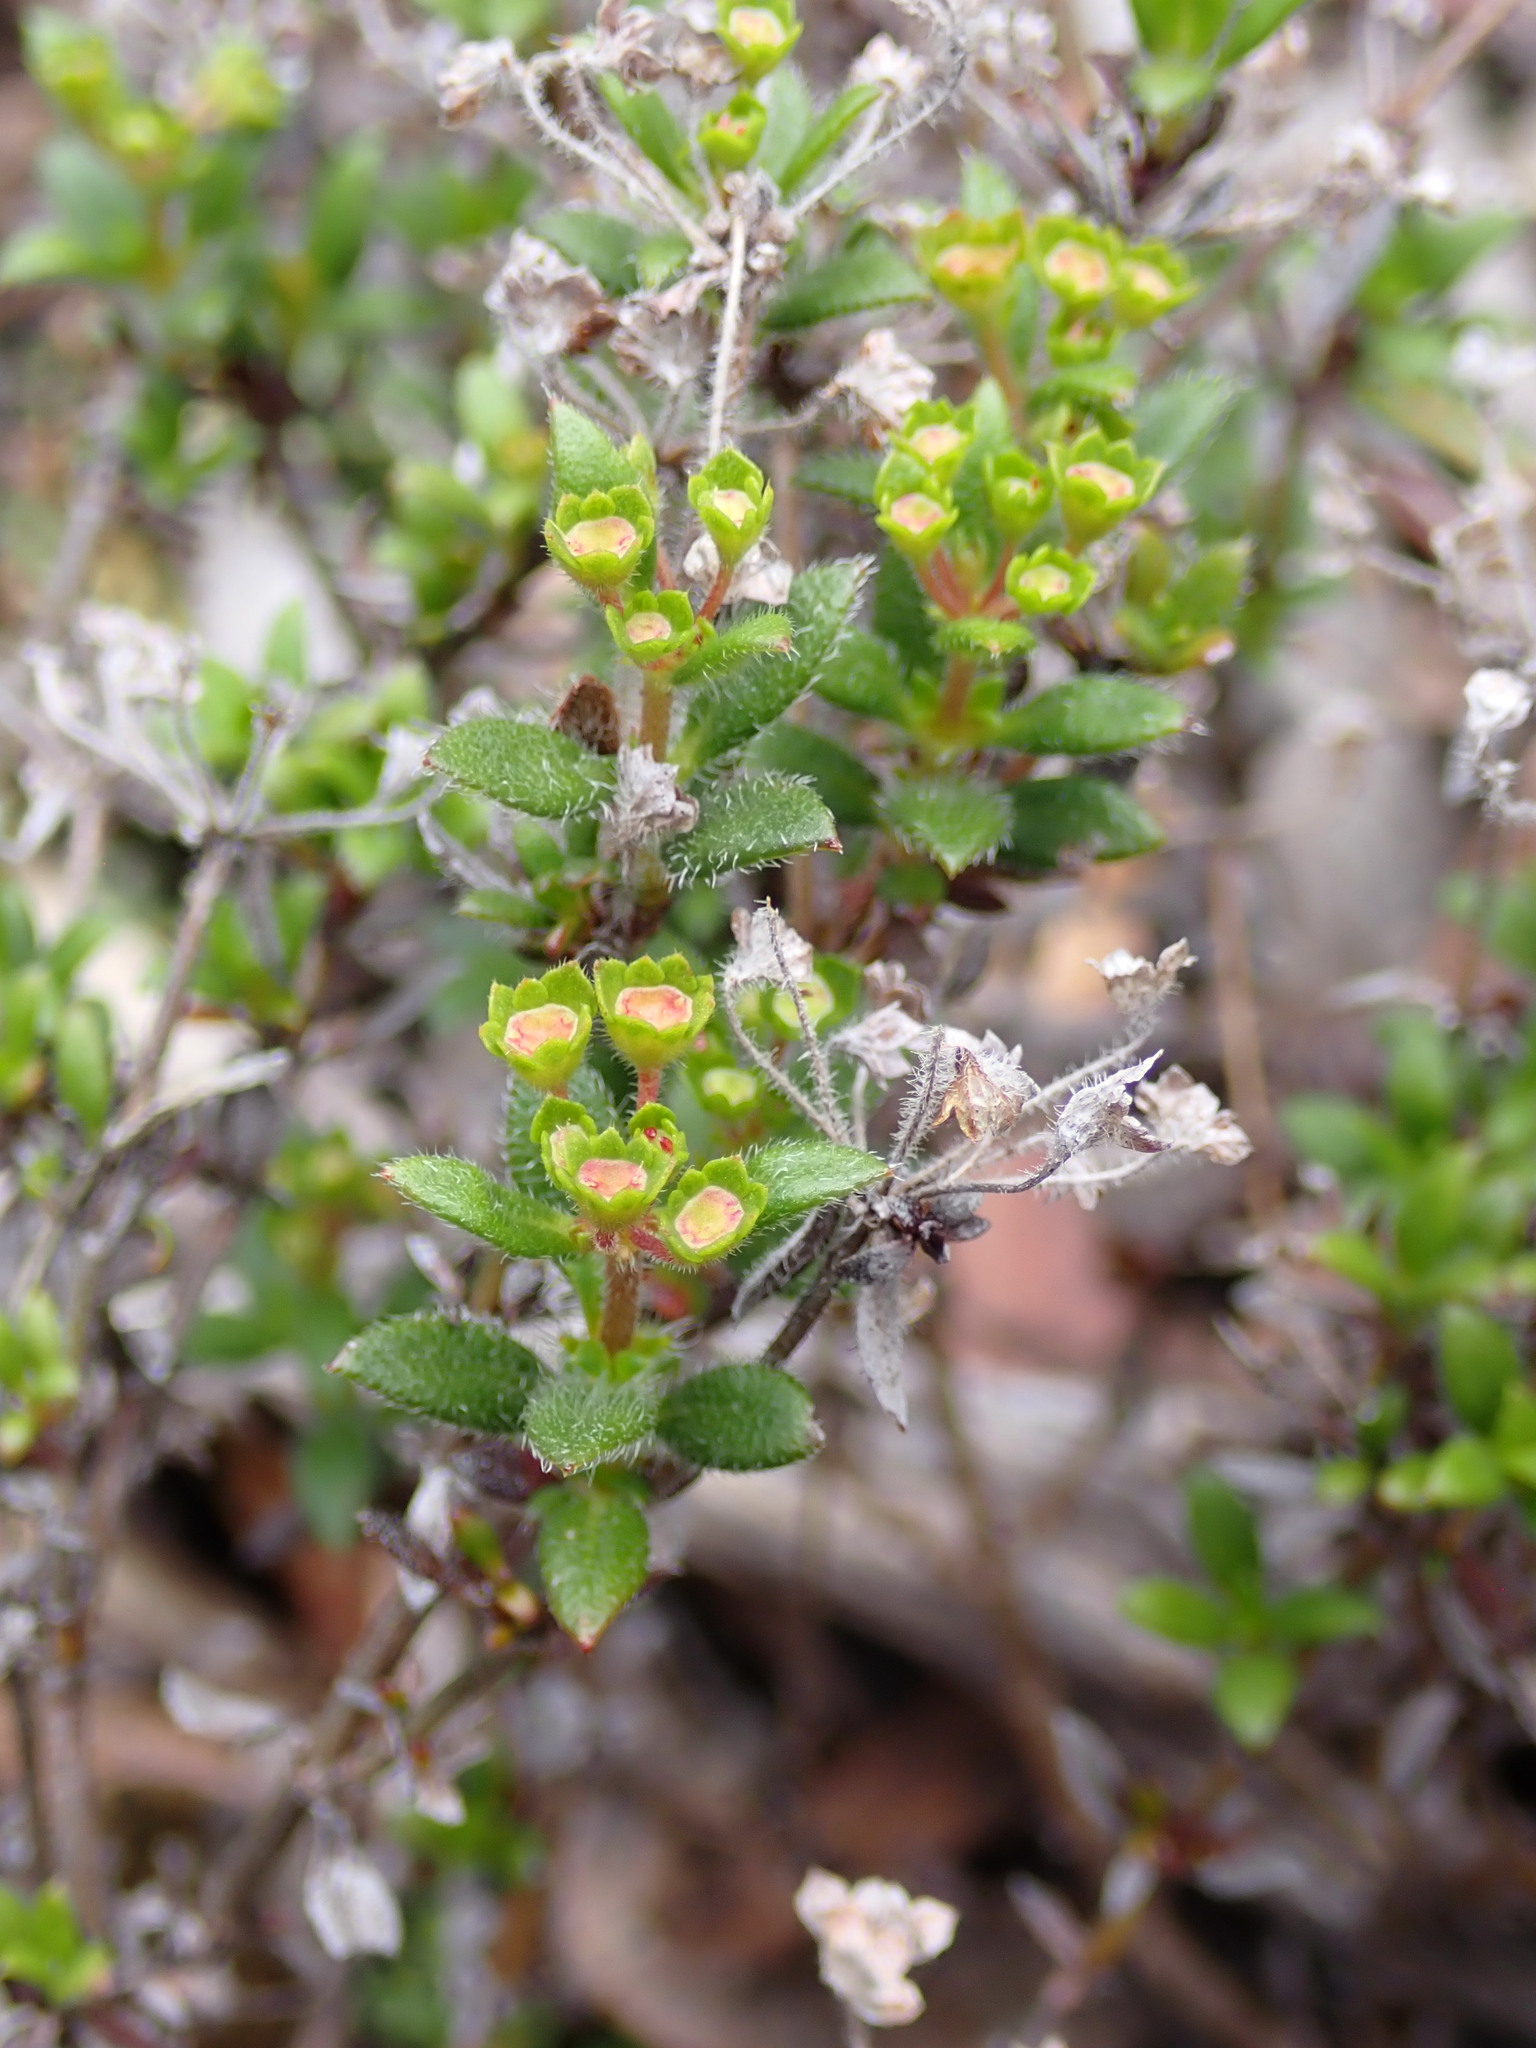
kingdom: Plantae
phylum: Tracheophyta
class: Magnoliopsida
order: Gentianales
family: Rubiaceae
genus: Pomax
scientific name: Pomax umbellata
